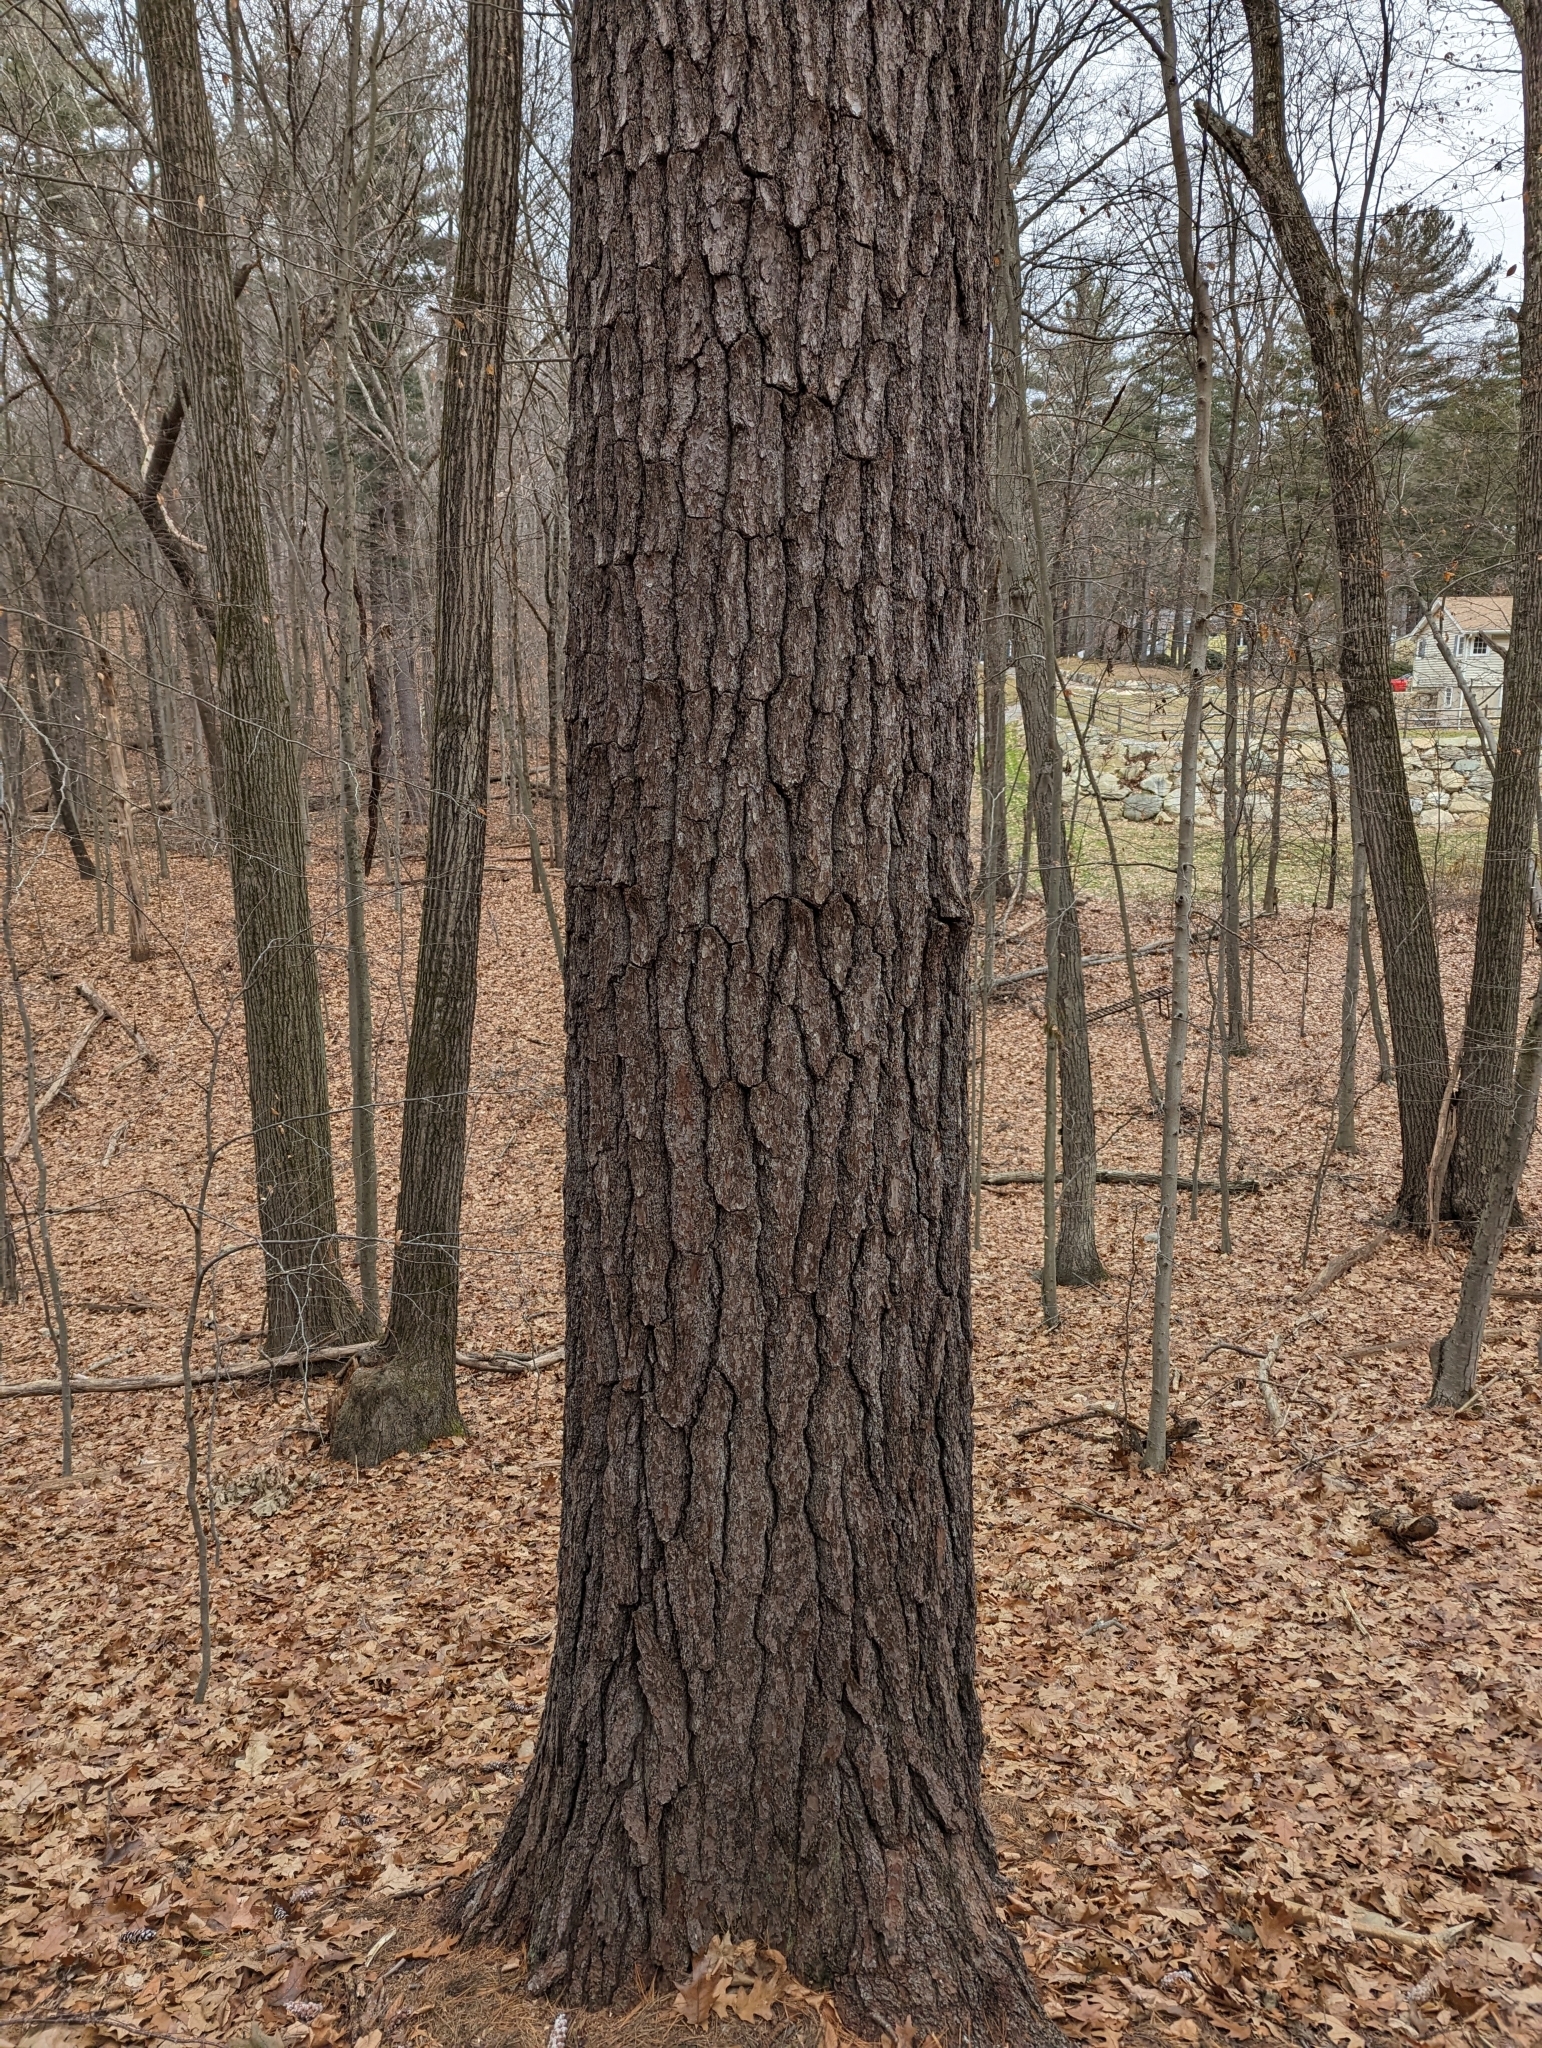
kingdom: Plantae
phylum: Tracheophyta
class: Pinopsida
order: Pinales
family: Pinaceae
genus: Pinus
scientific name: Pinus strobus
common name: Weymouth pine
